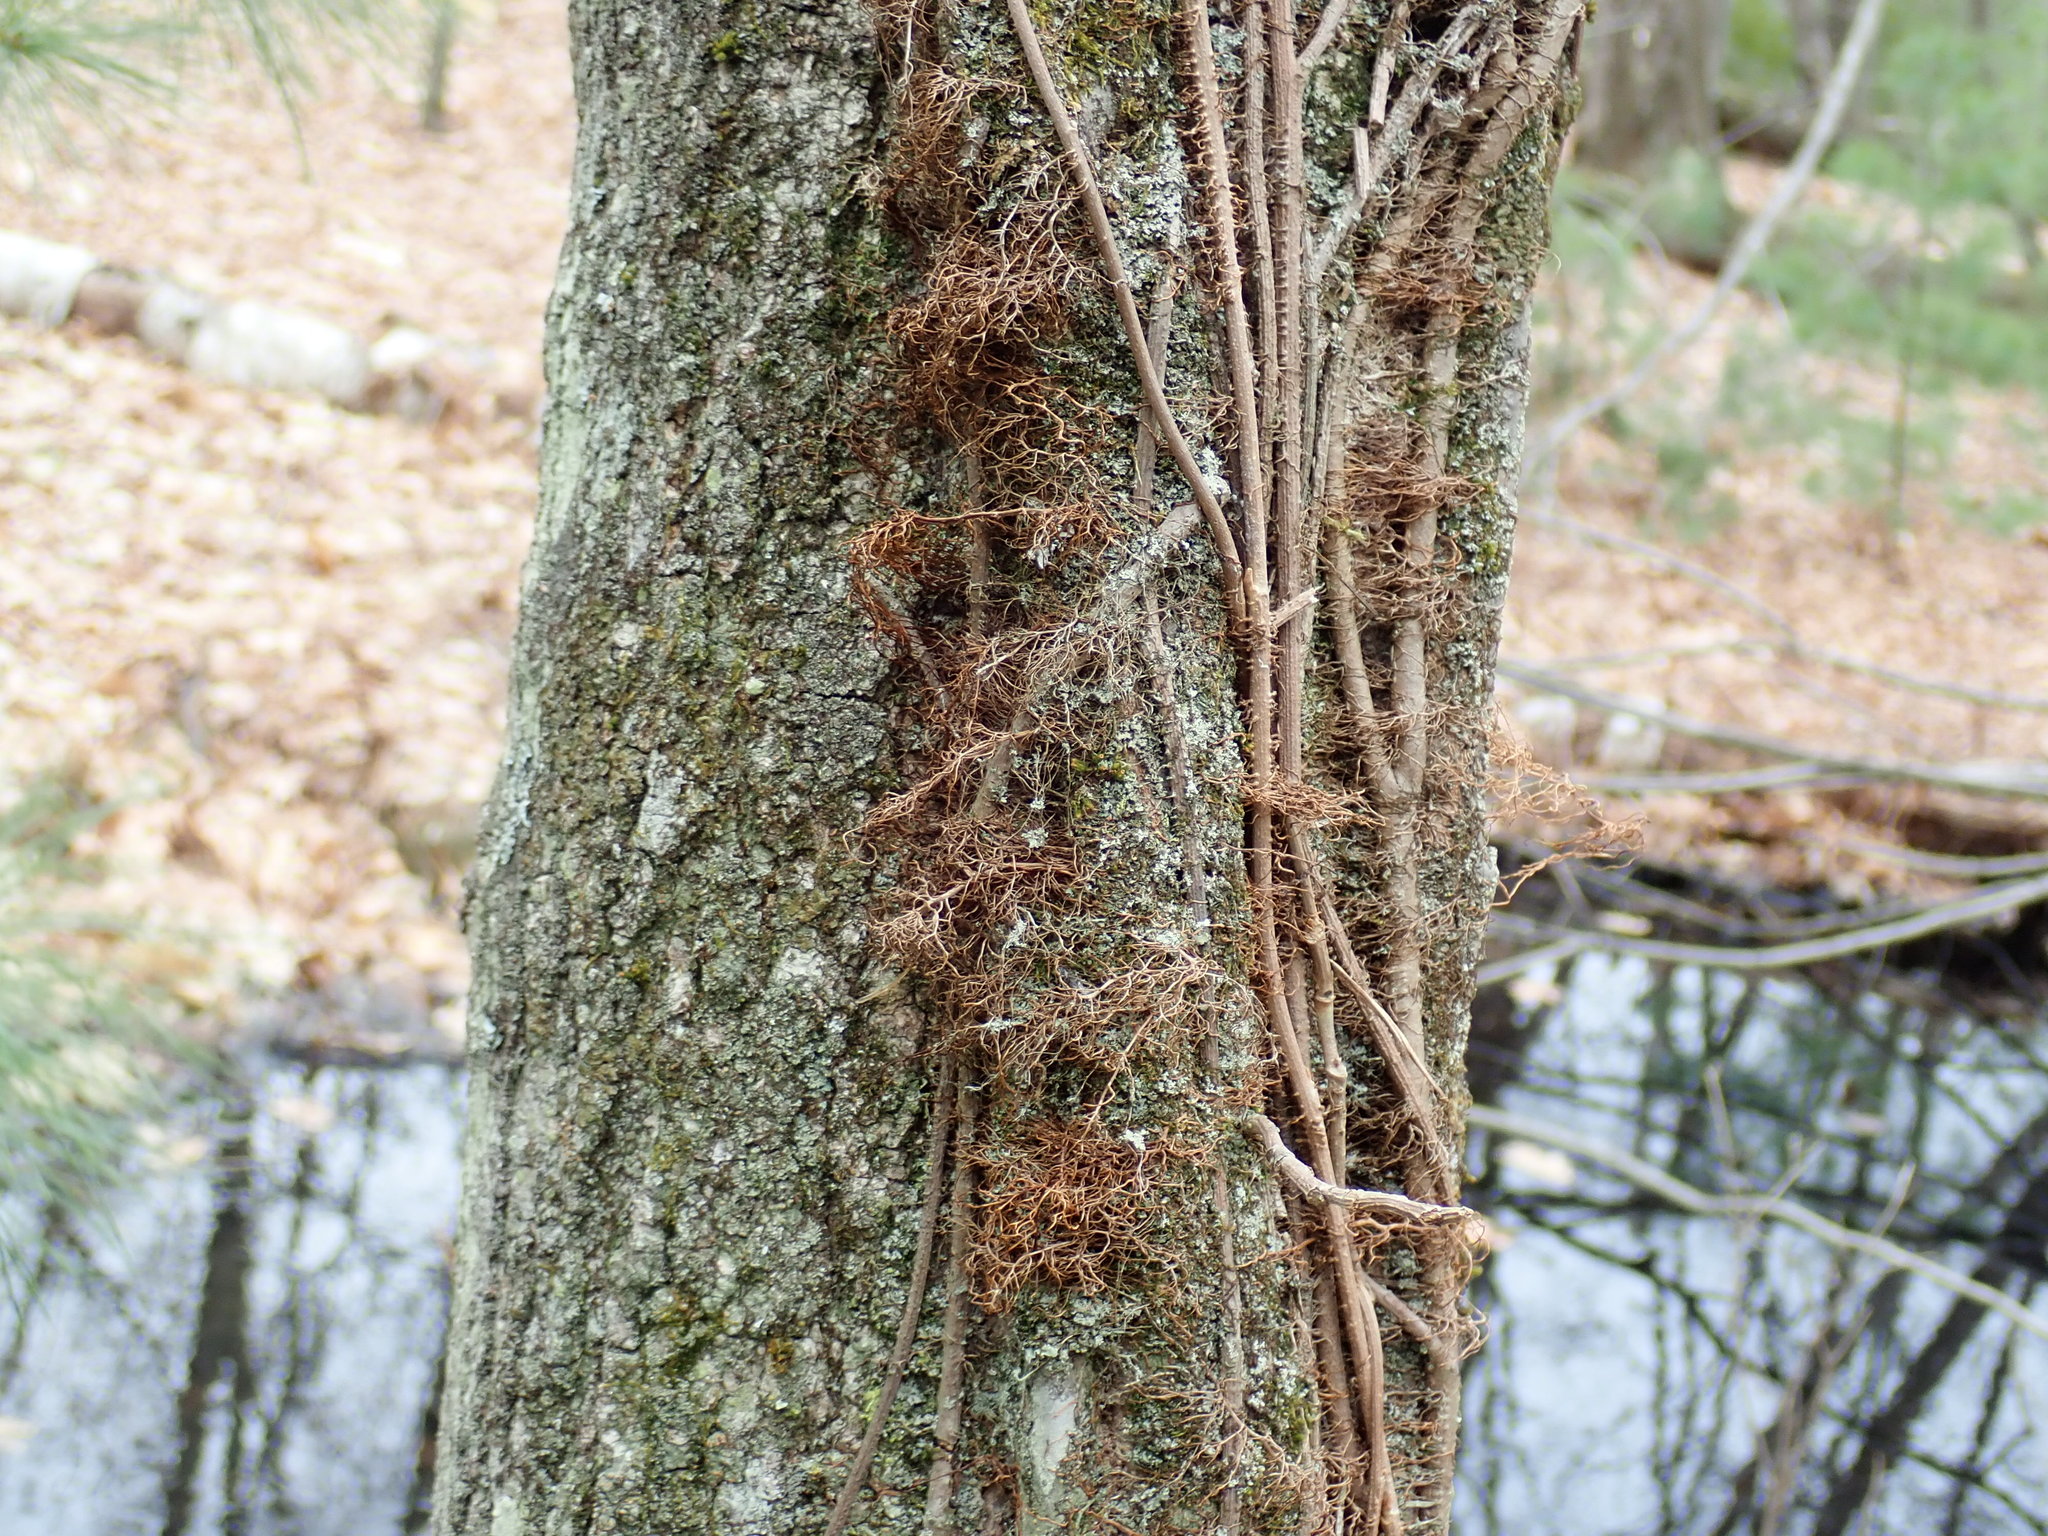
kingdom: Plantae
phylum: Tracheophyta
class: Magnoliopsida
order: Sapindales
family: Anacardiaceae
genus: Toxicodendron
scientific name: Toxicodendron radicans
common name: Poison ivy
